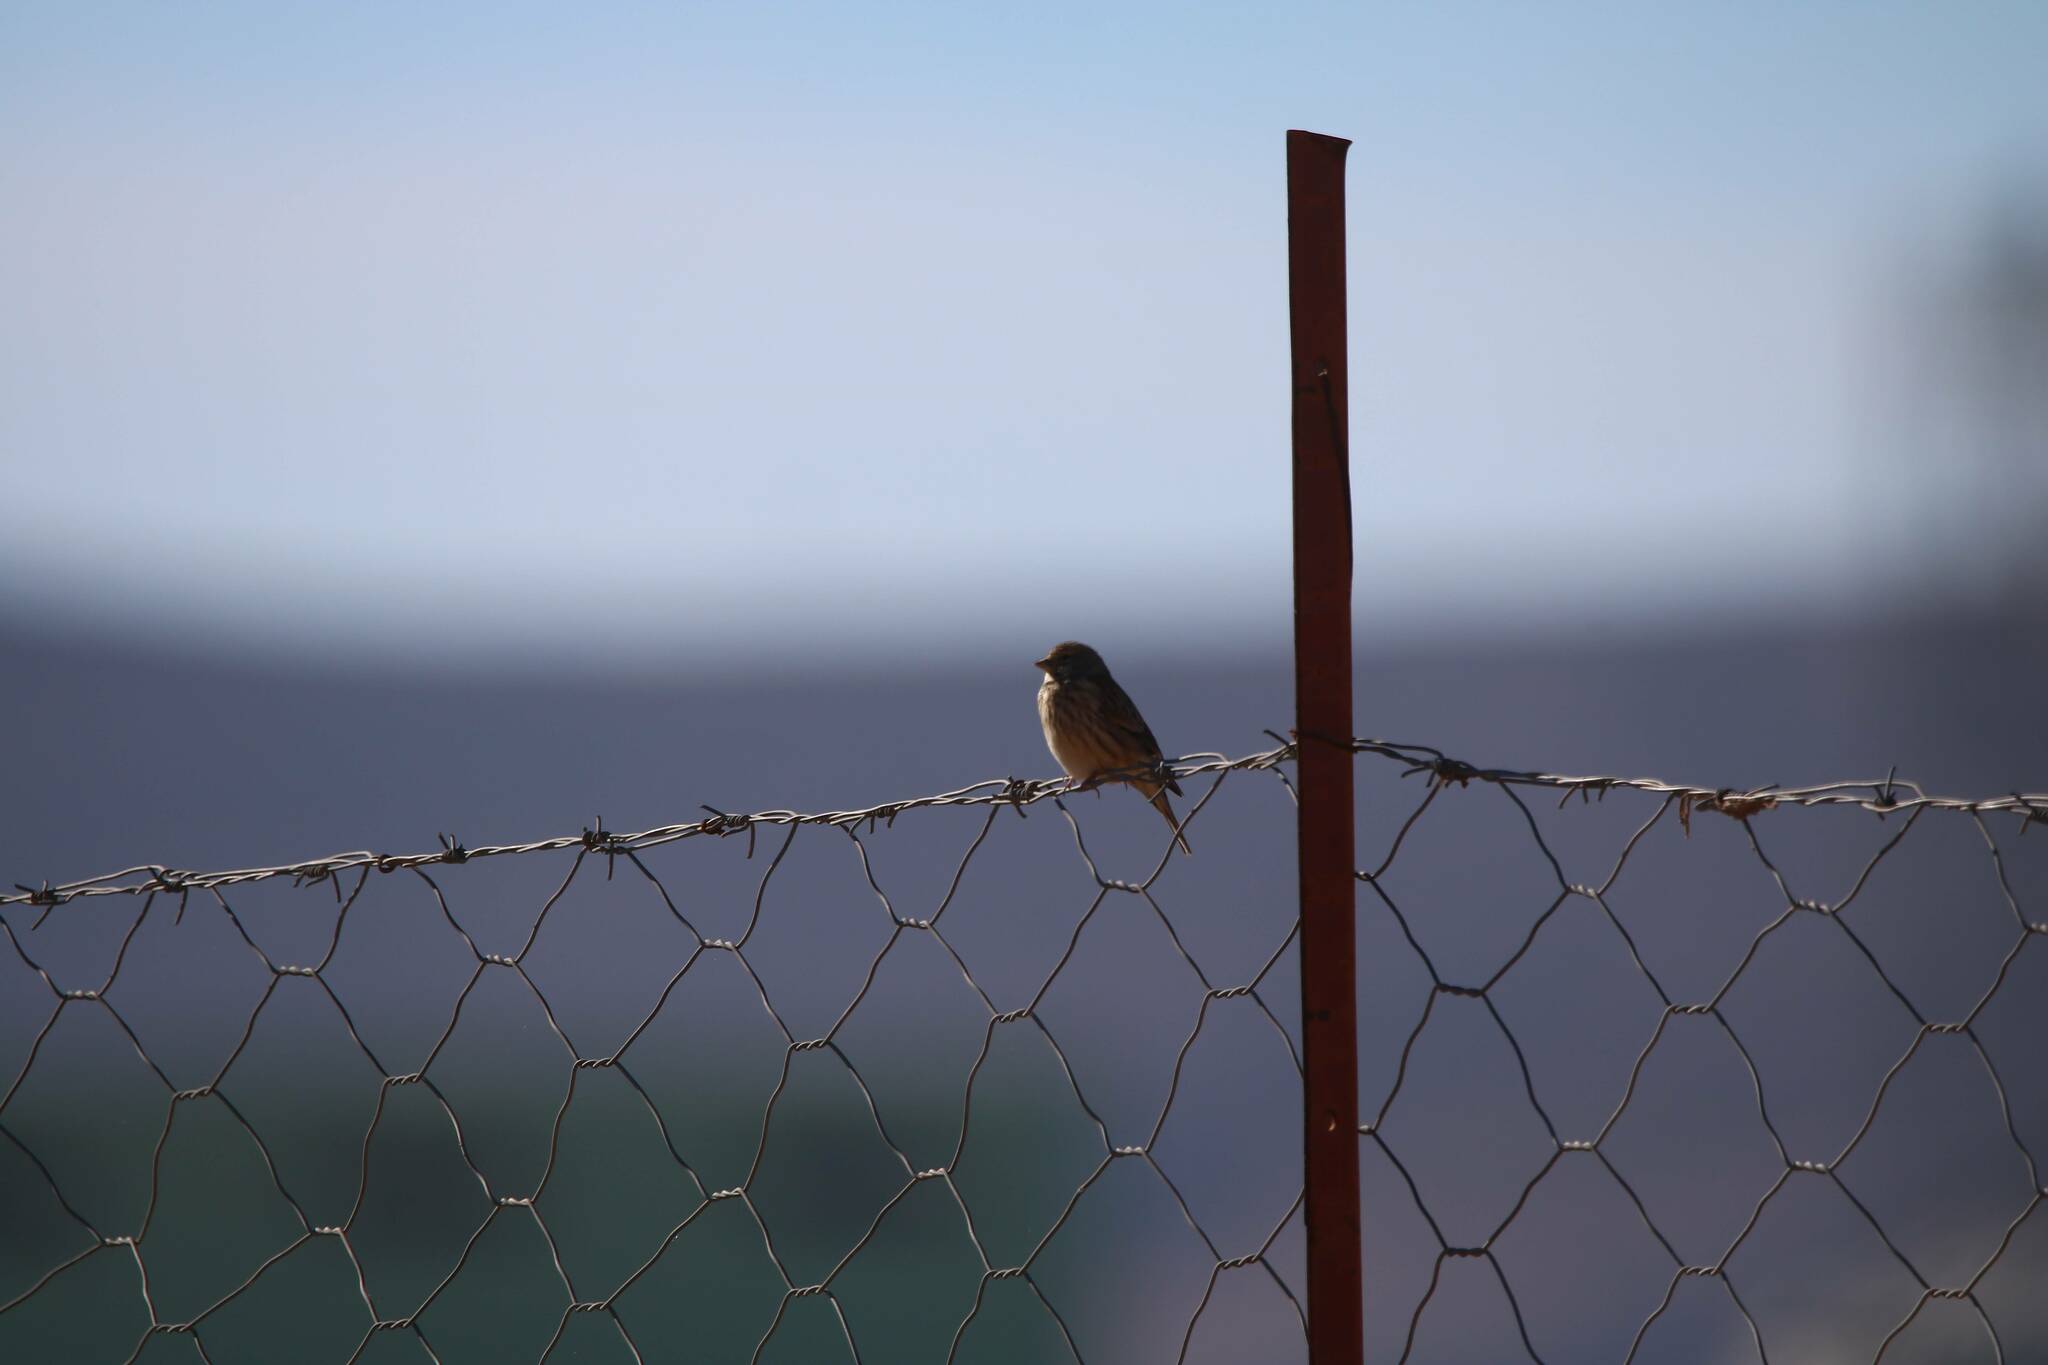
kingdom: Animalia
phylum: Chordata
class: Aves
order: Passeriformes
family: Fringillidae
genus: Linaria
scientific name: Linaria cannabina
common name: Common linnet
